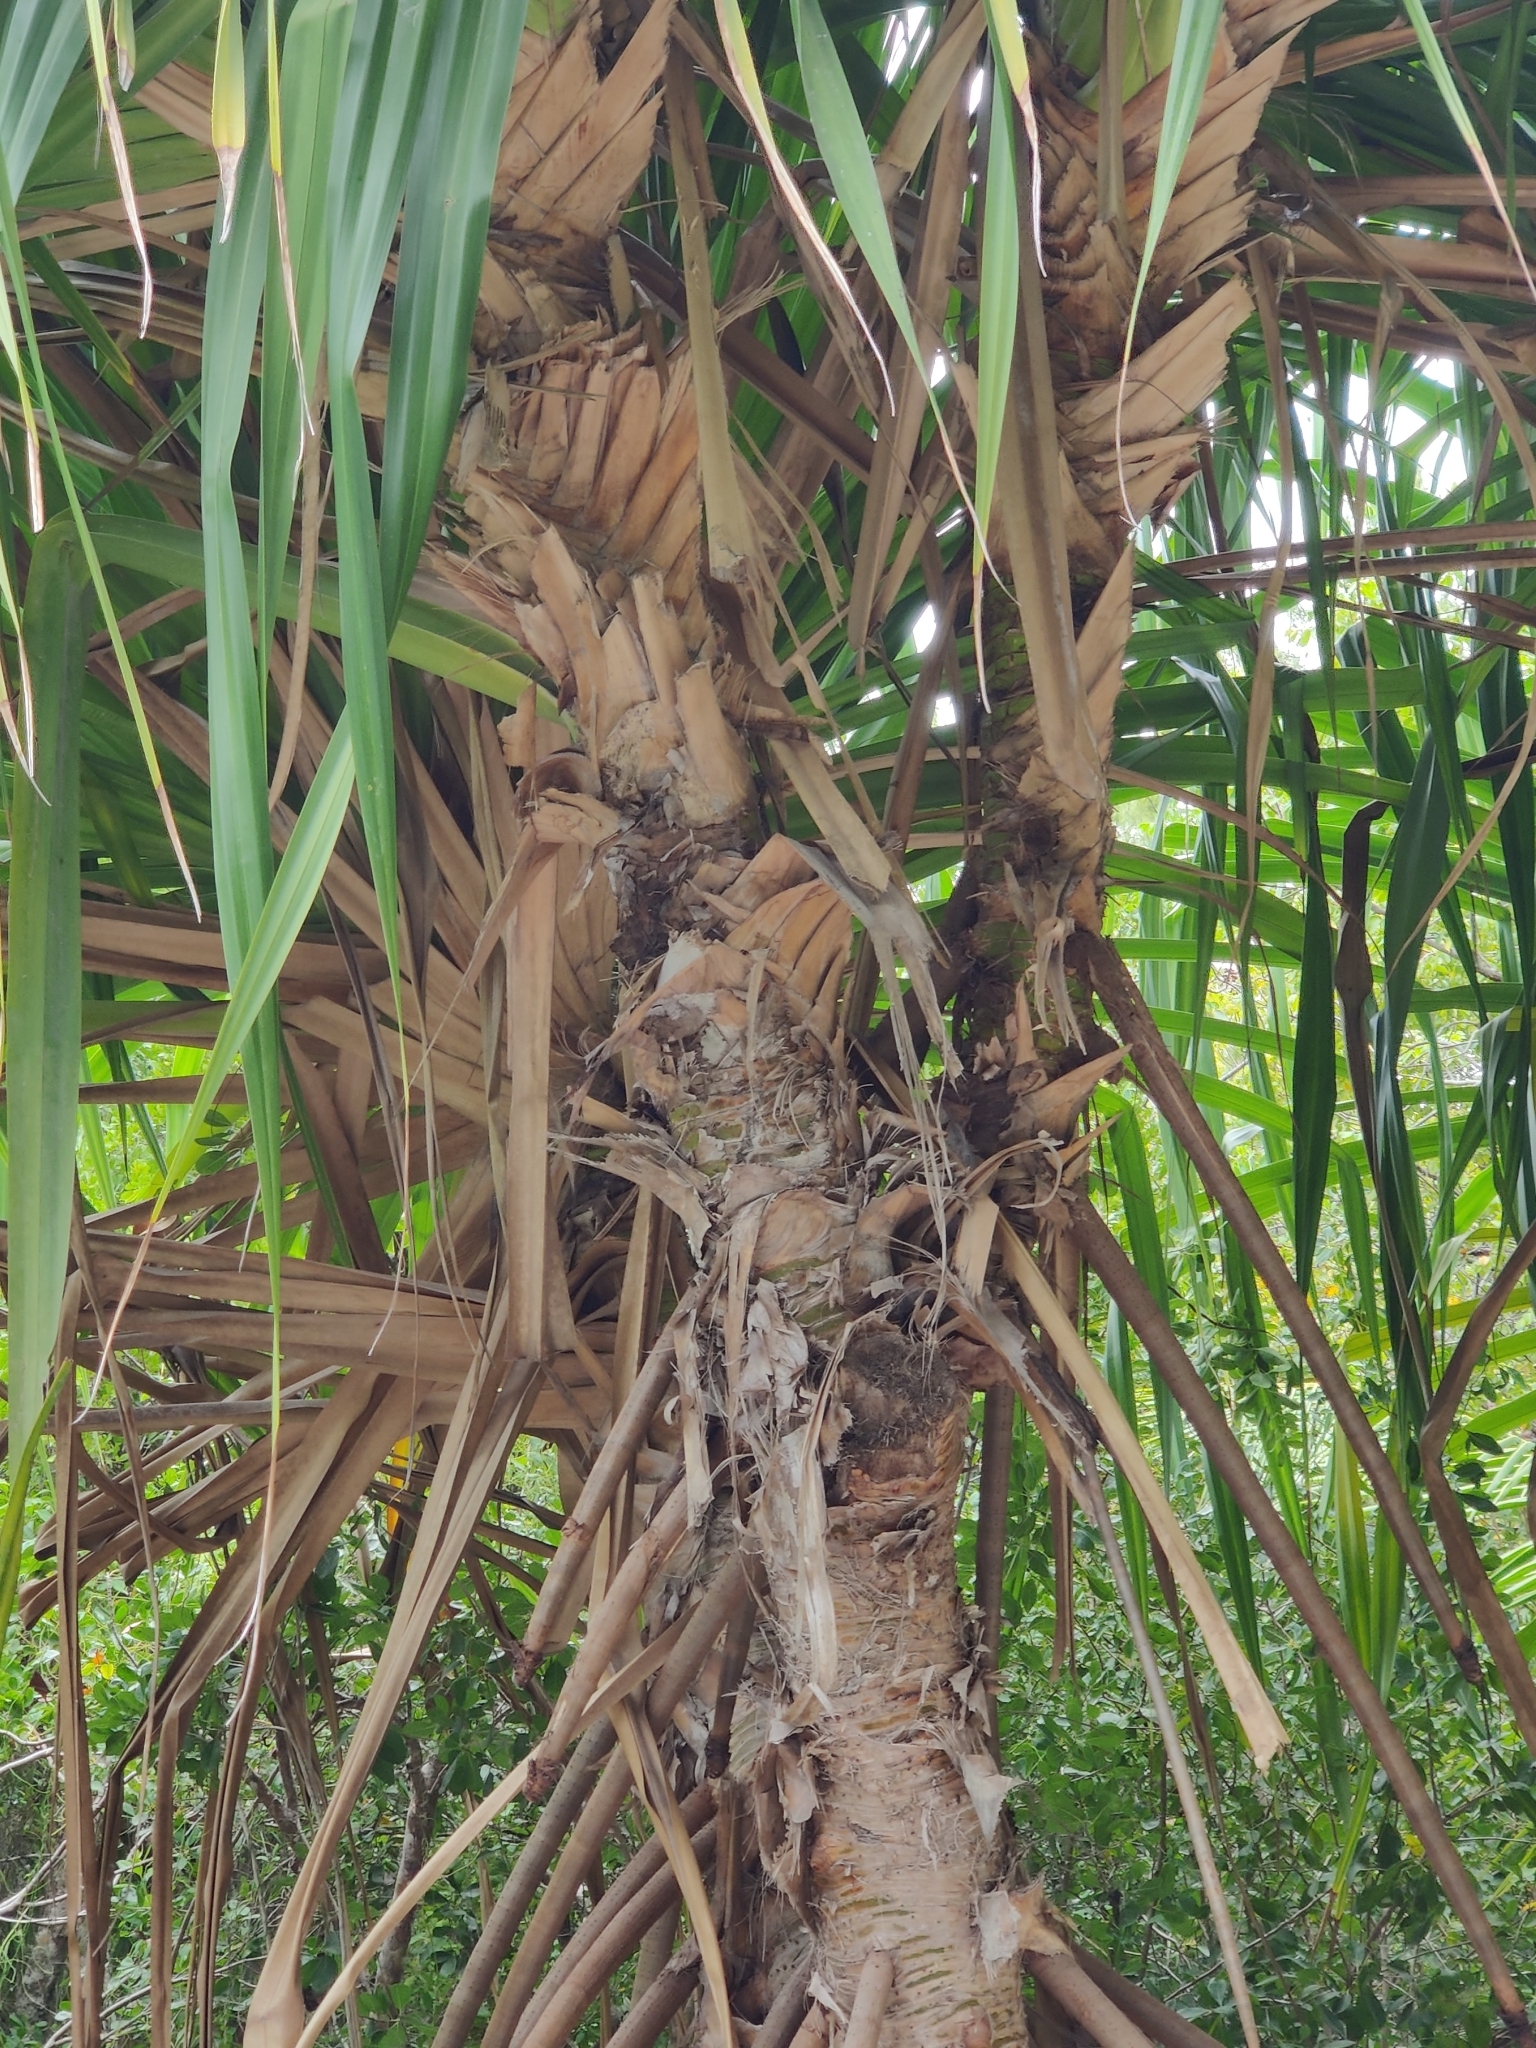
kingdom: Plantae
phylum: Tracheophyta
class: Liliopsida
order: Pandanales
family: Pandanaceae
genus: Pandanus
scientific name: Pandanus tectorius
